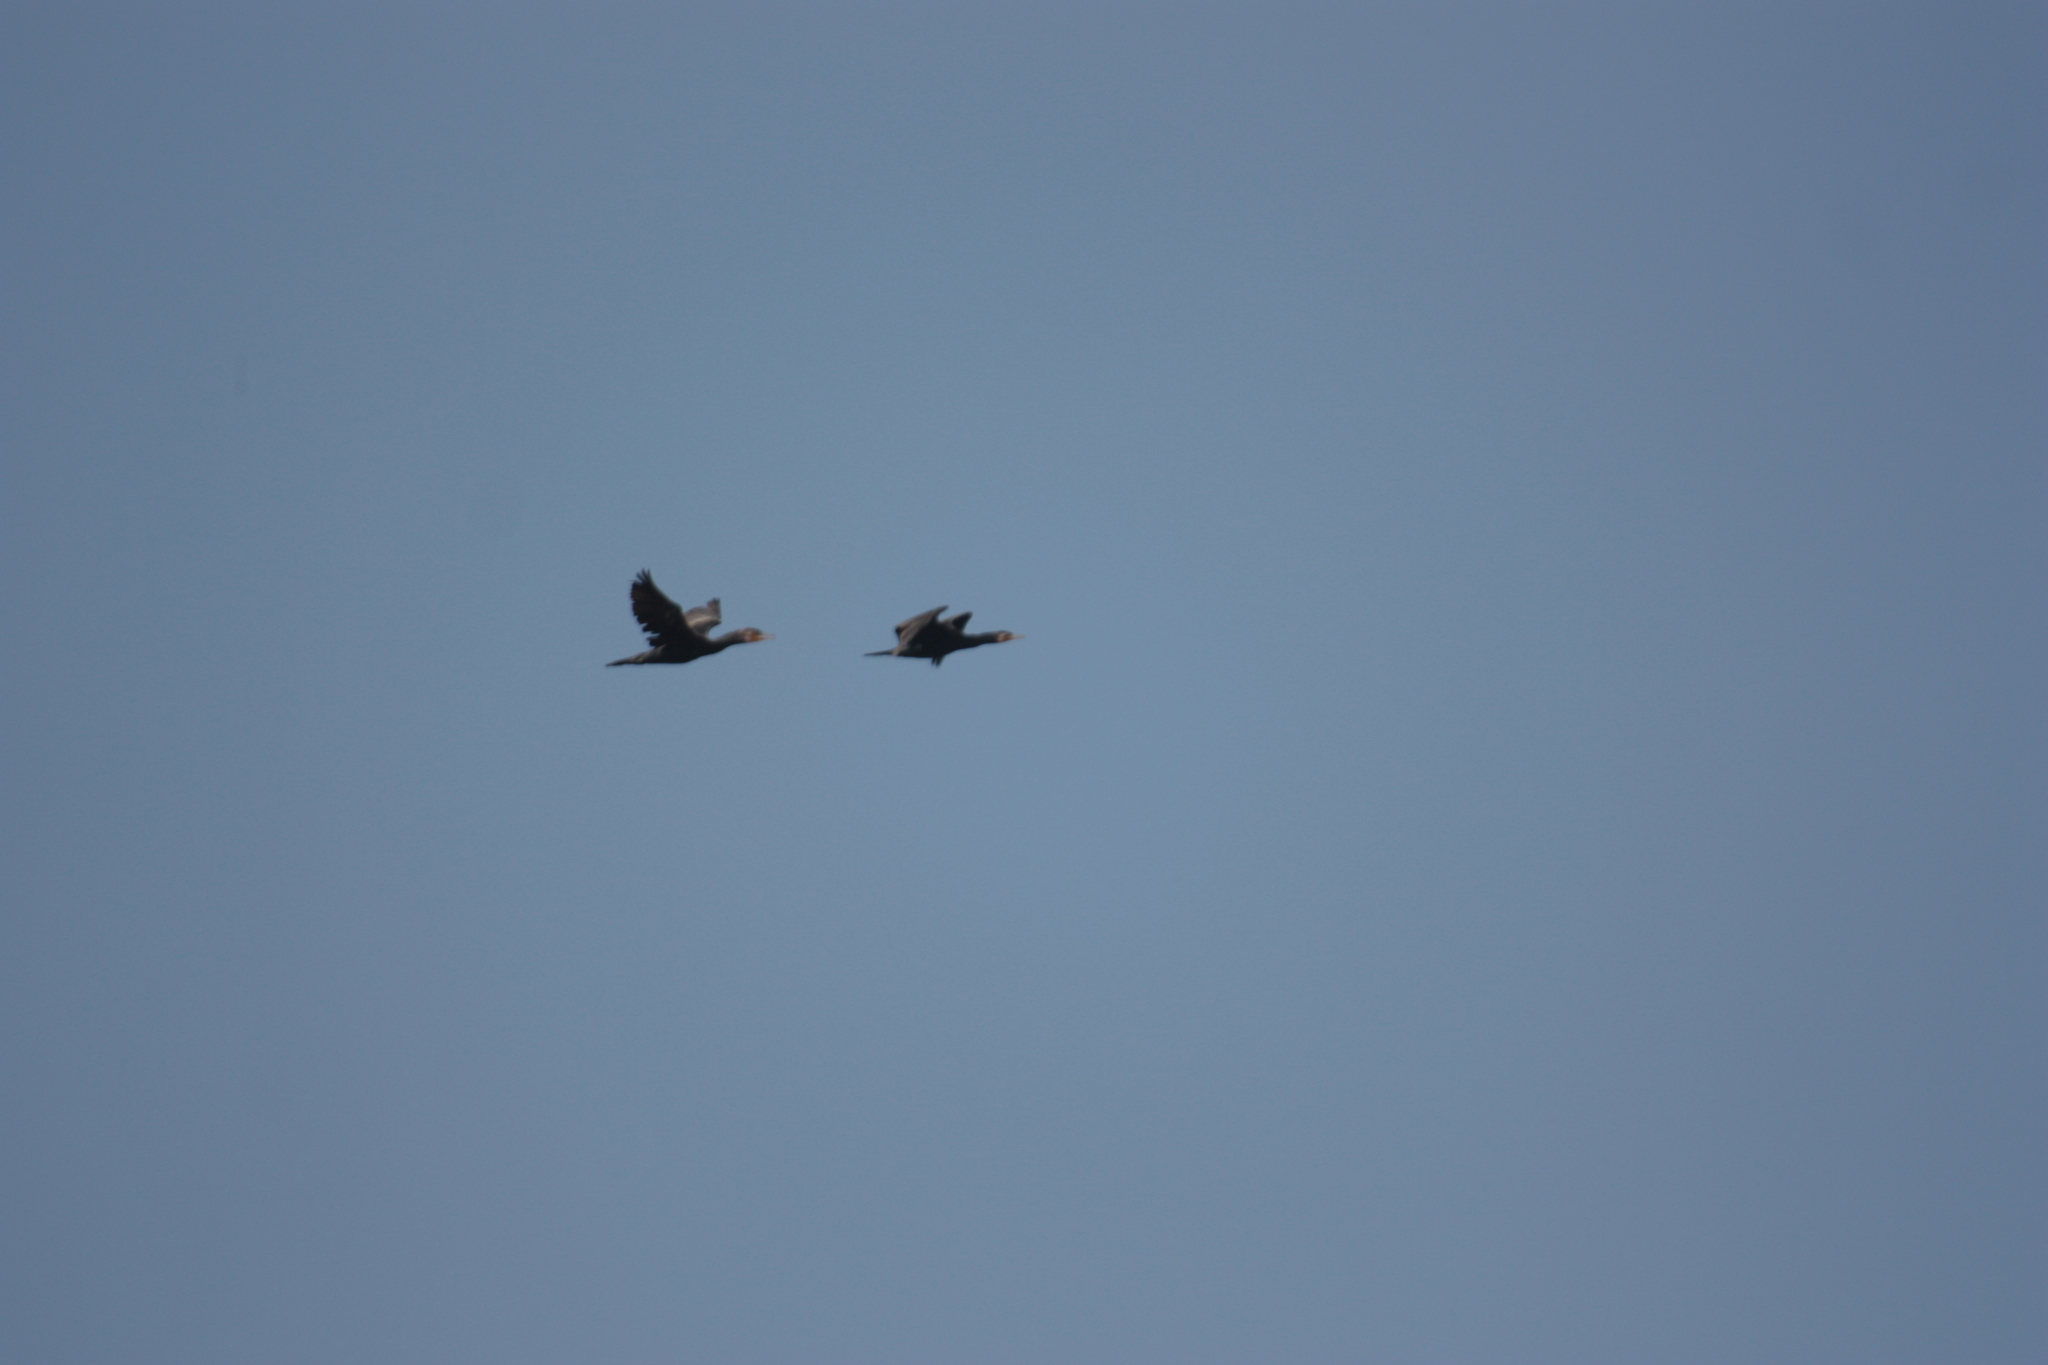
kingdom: Animalia
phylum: Chordata
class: Aves
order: Suliformes
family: Phalacrocoracidae
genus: Phalacrocorax
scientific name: Phalacrocorax carbo
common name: Great cormorant
